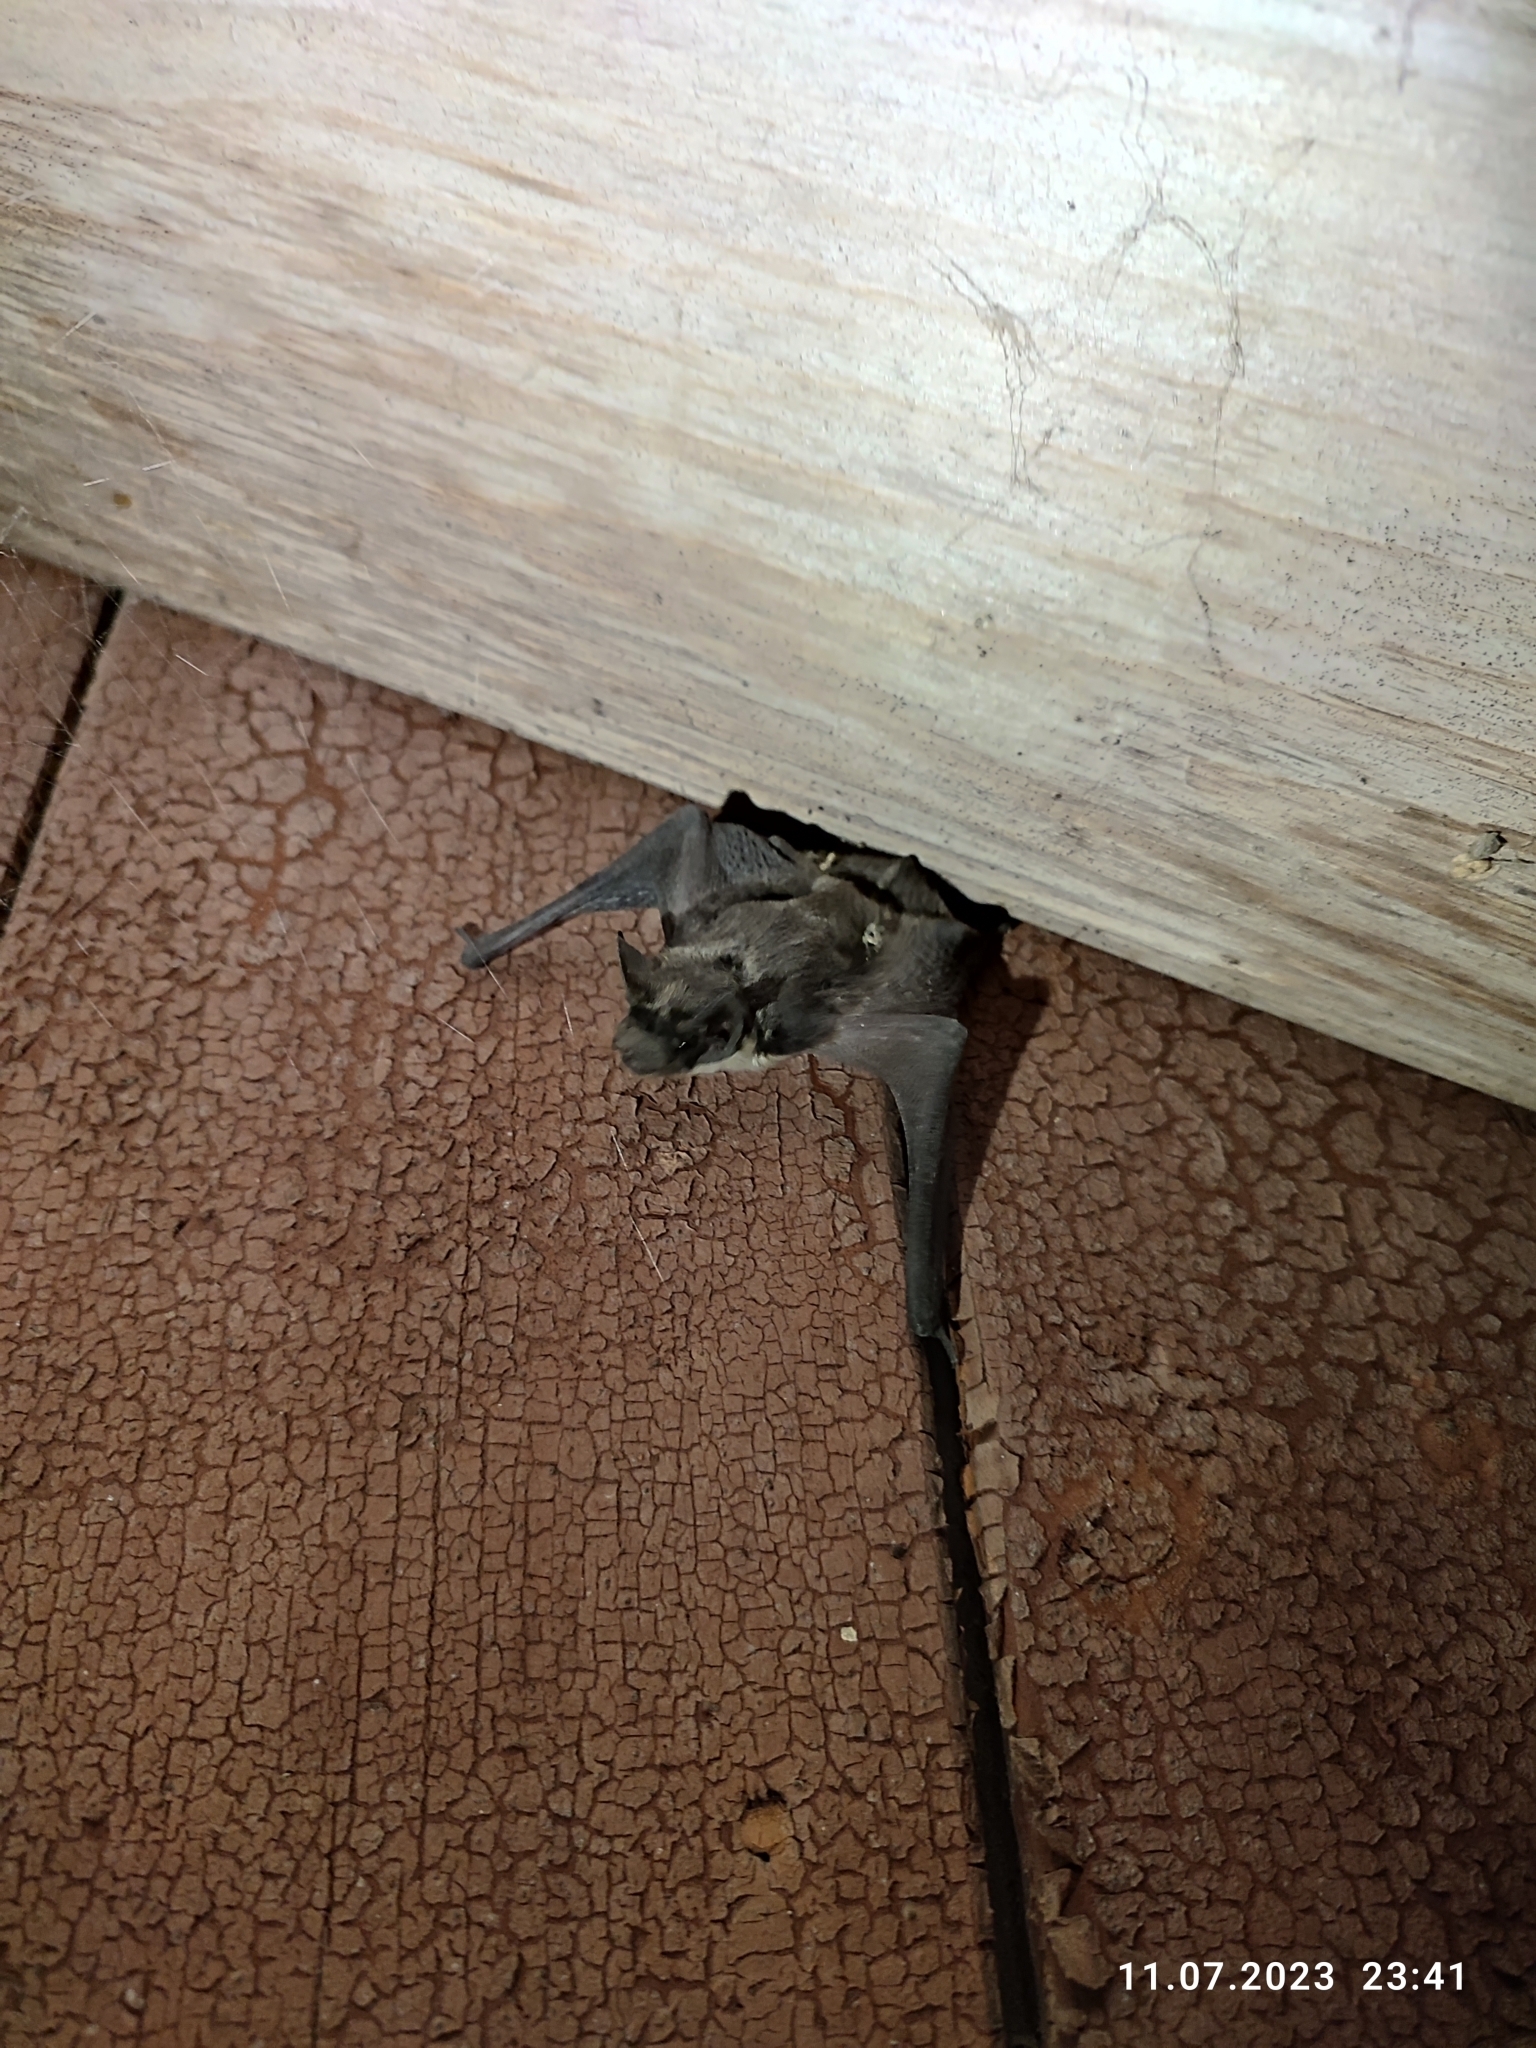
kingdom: Animalia
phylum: Chordata
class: Mammalia
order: Chiroptera
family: Vespertilionidae
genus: Vespertilio
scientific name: Vespertilio murinus
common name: Particolored bat
